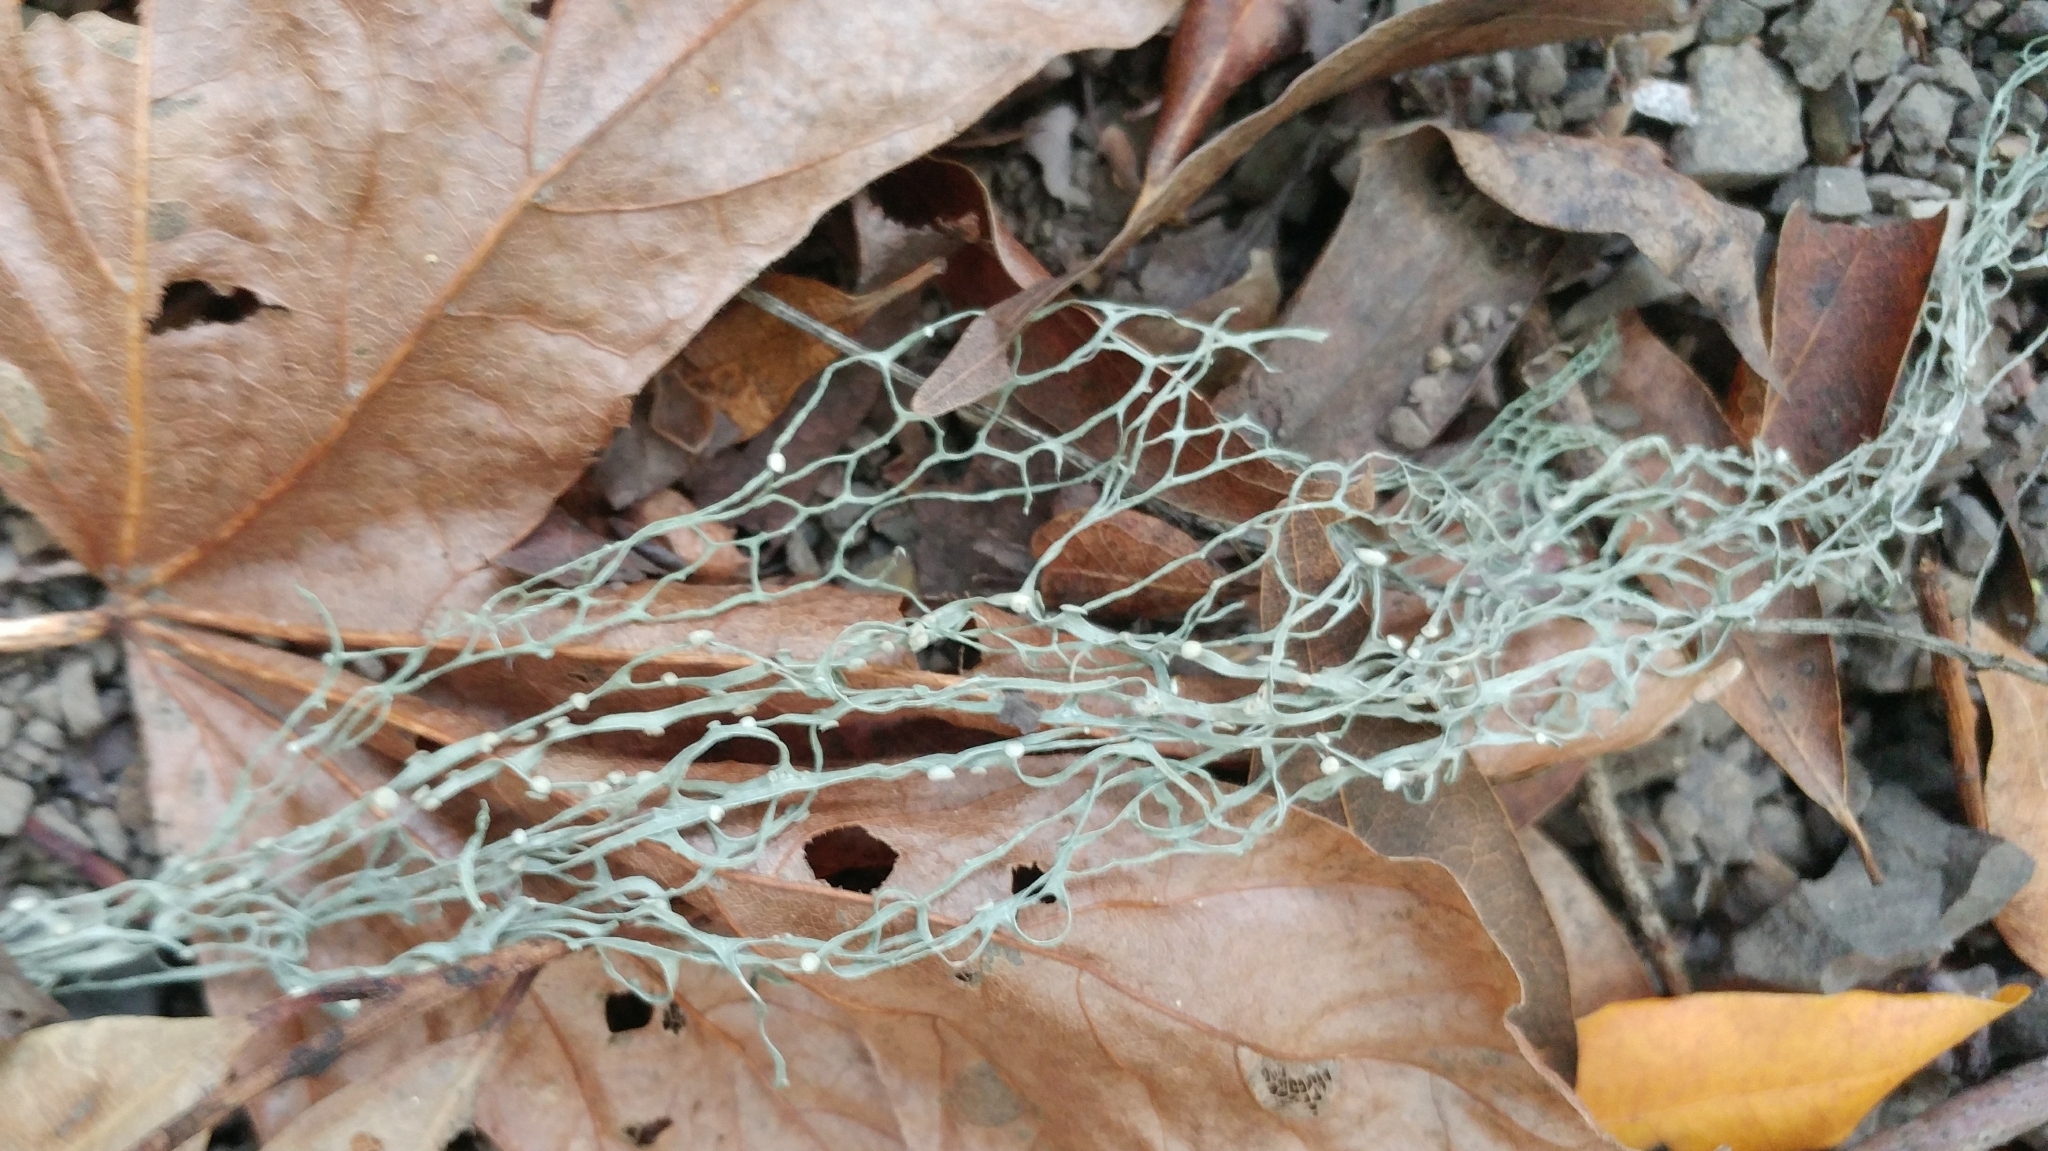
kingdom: Fungi
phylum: Ascomycota
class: Lecanoromycetes
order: Lecanorales
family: Ramalinaceae
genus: Ramalina
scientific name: Ramalina menziesii
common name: Lace lichen
